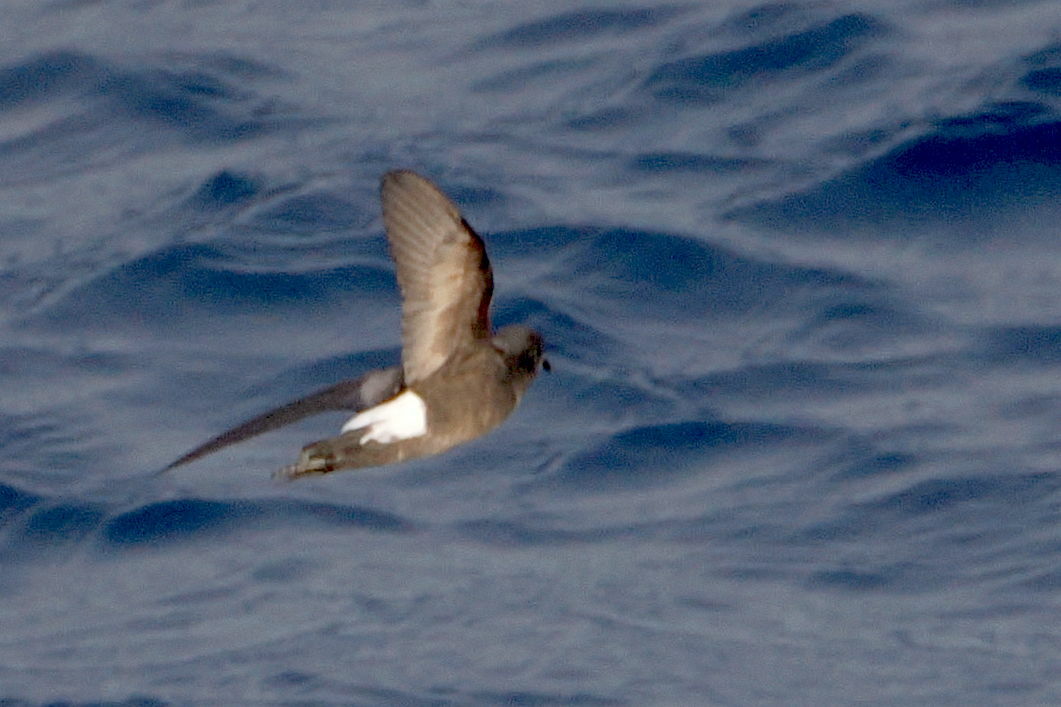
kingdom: Animalia
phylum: Chordata
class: Aves
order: Procellariiformes
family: Hydrobatidae
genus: Oceanites
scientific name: Oceanites oceanicus
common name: Wilson's storm petrel
